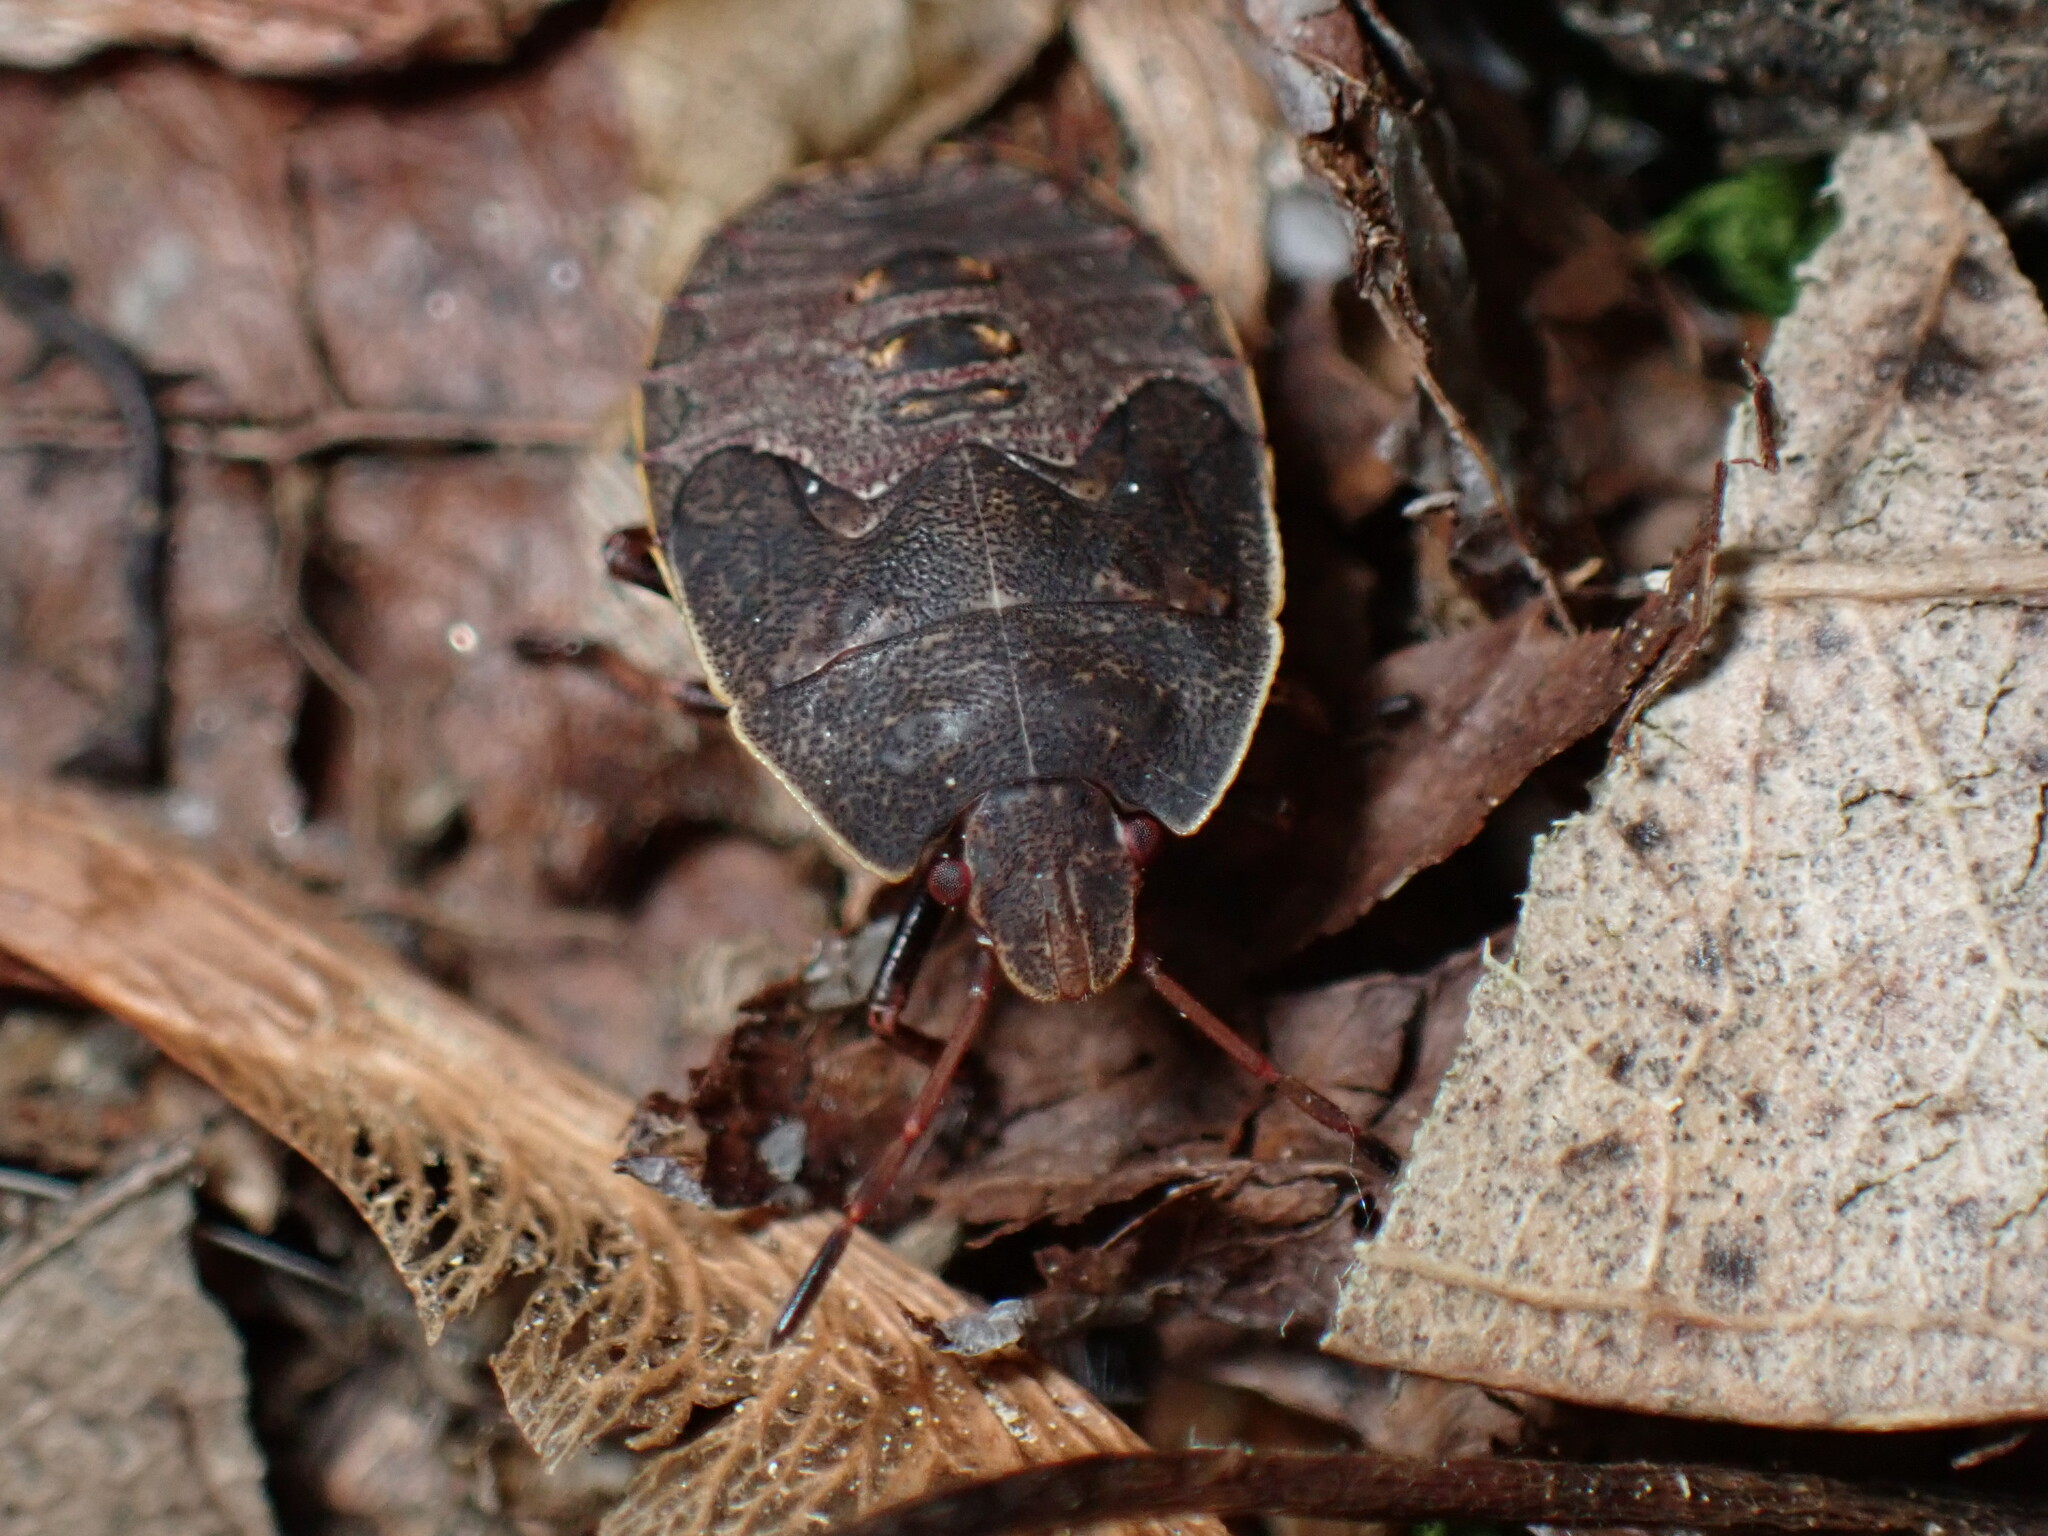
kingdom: Animalia
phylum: Arthropoda
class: Insecta
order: Hemiptera
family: Pentatomidae
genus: Menecles
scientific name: Menecles insertus
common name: Elf shoe stink bug
